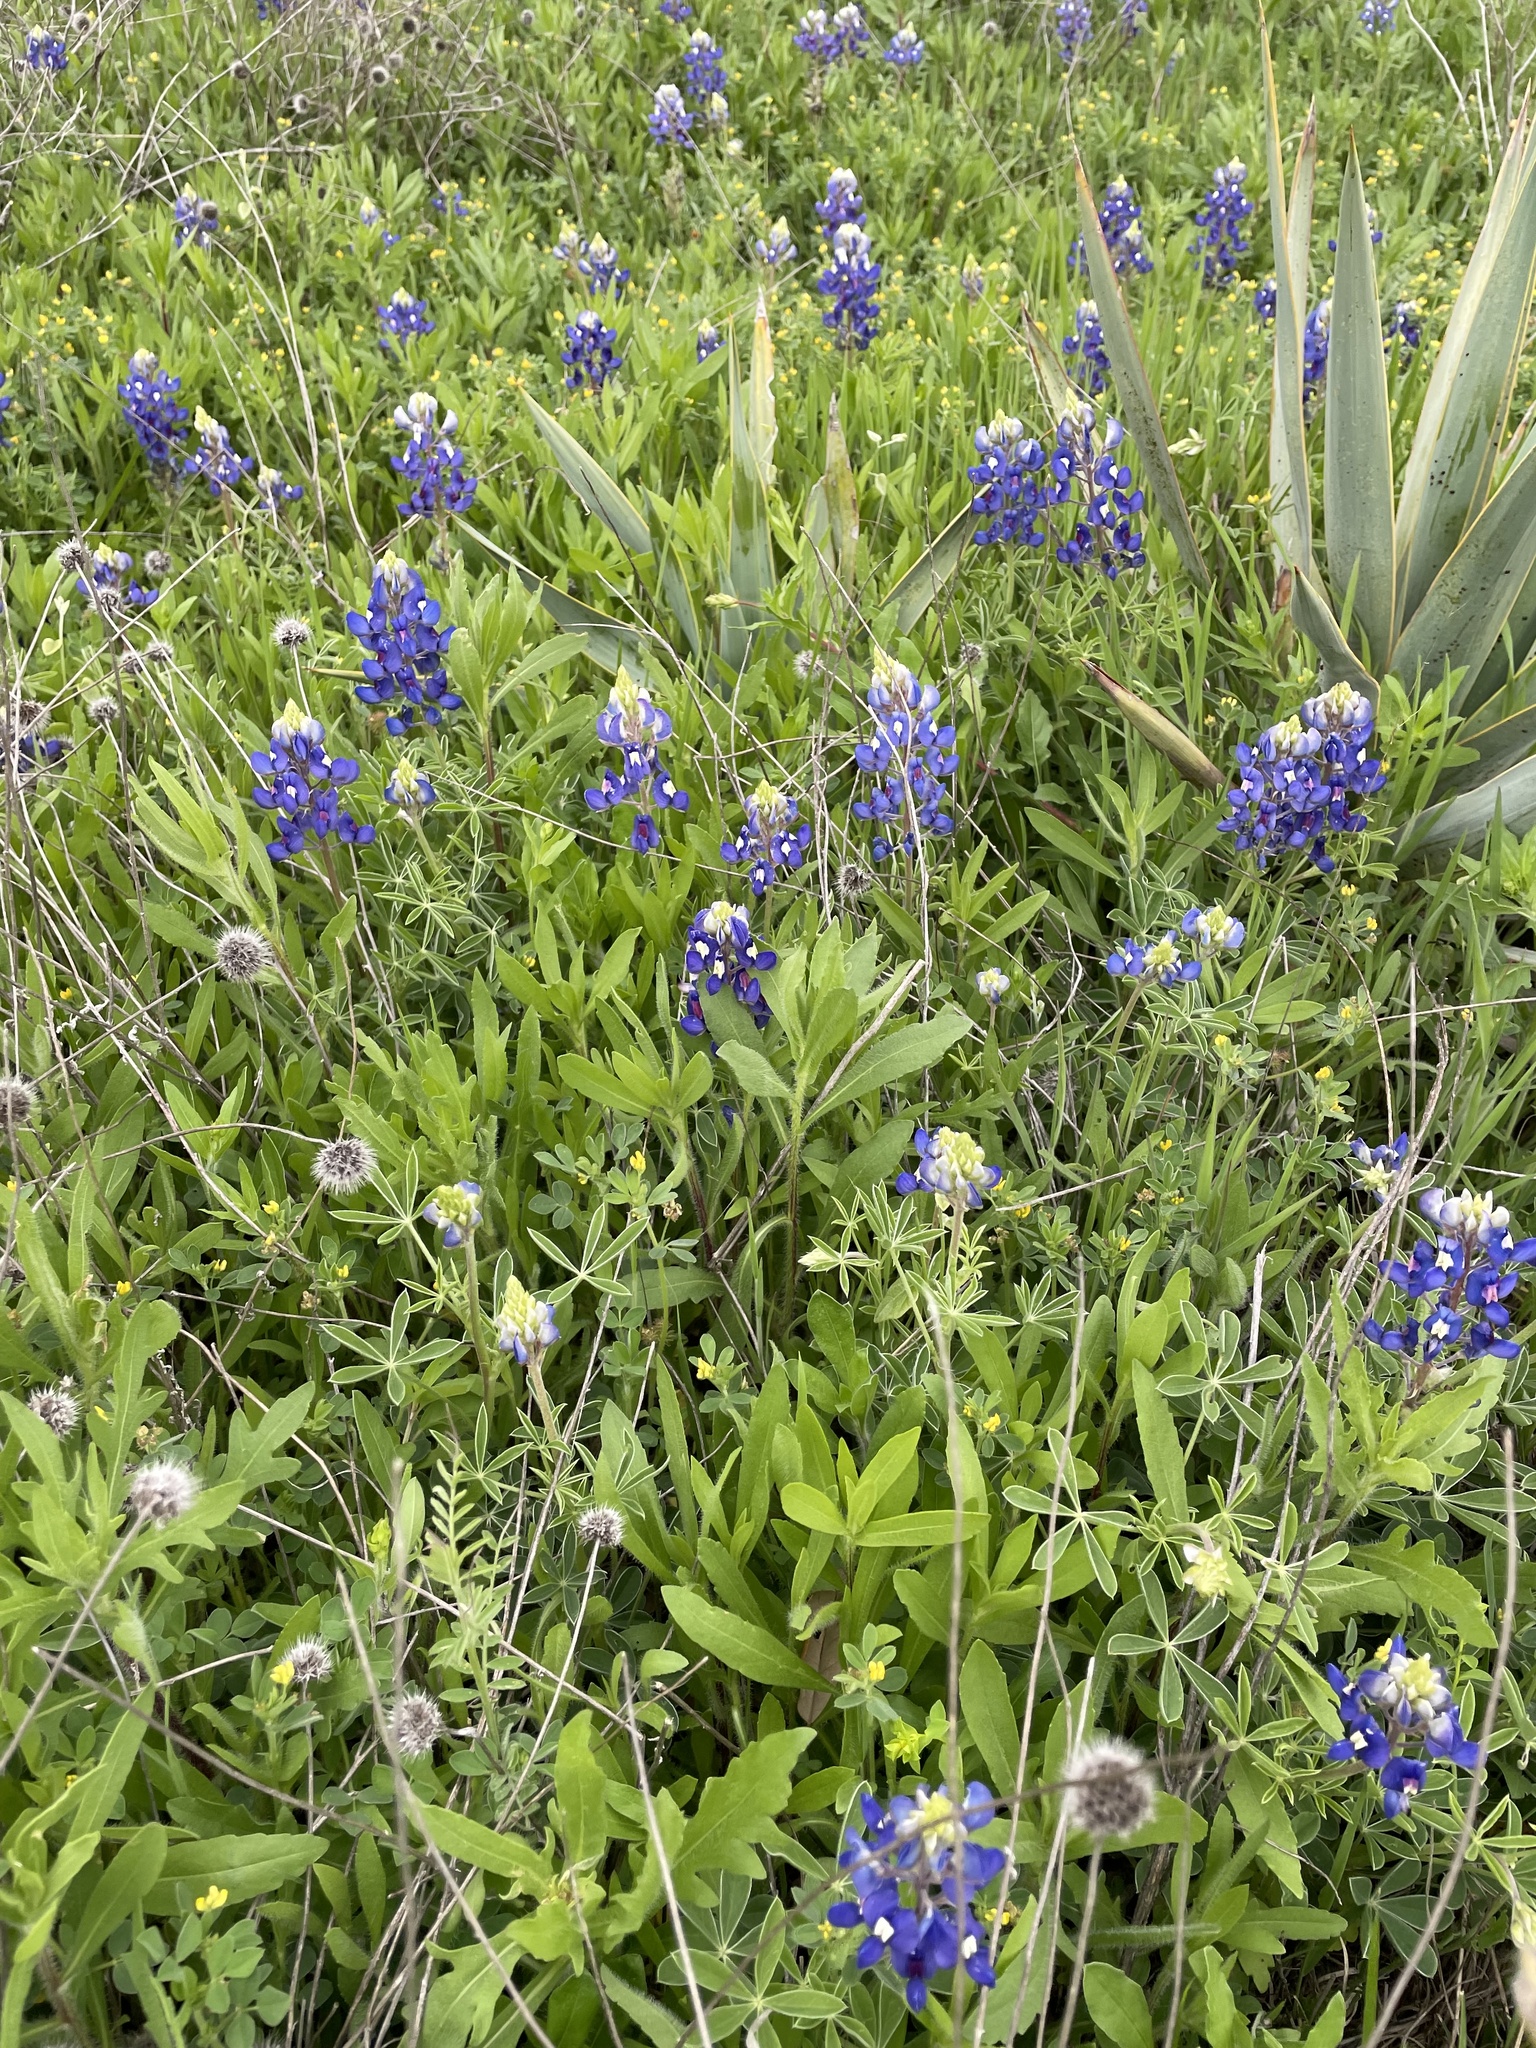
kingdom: Plantae
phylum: Tracheophyta
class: Magnoliopsida
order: Fabales
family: Fabaceae
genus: Lupinus
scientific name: Lupinus texensis
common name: Texas bluebonnet
